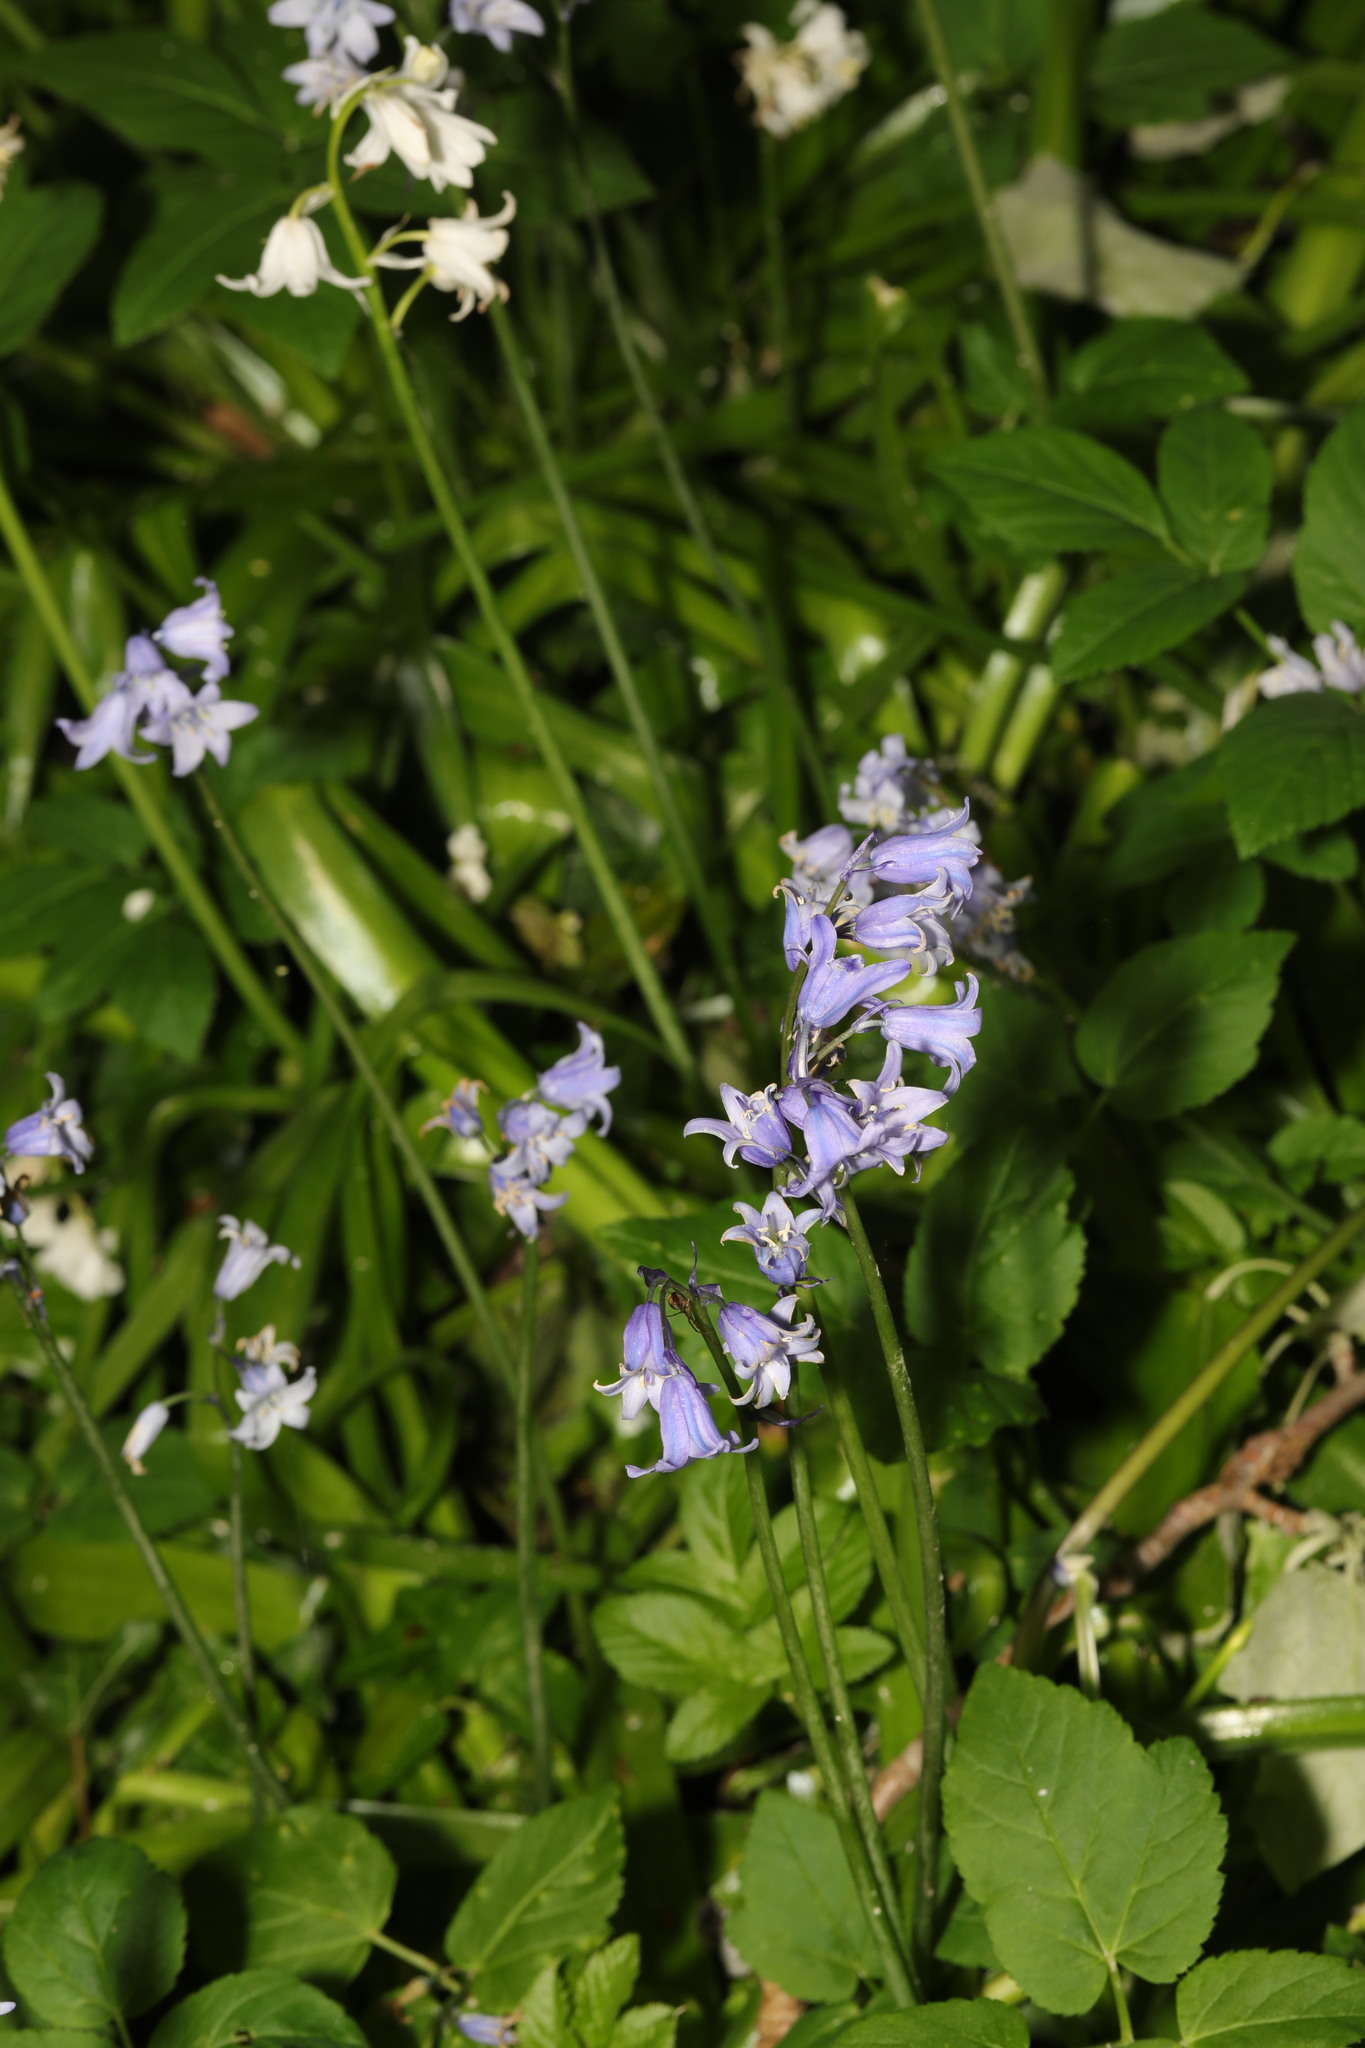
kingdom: Plantae
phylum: Tracheophyta
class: Liliopsida
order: Asparagales
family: Asparagaceae
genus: Hyacinthoides
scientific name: Hyacinthoides massartiana
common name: Hyacinthoides
